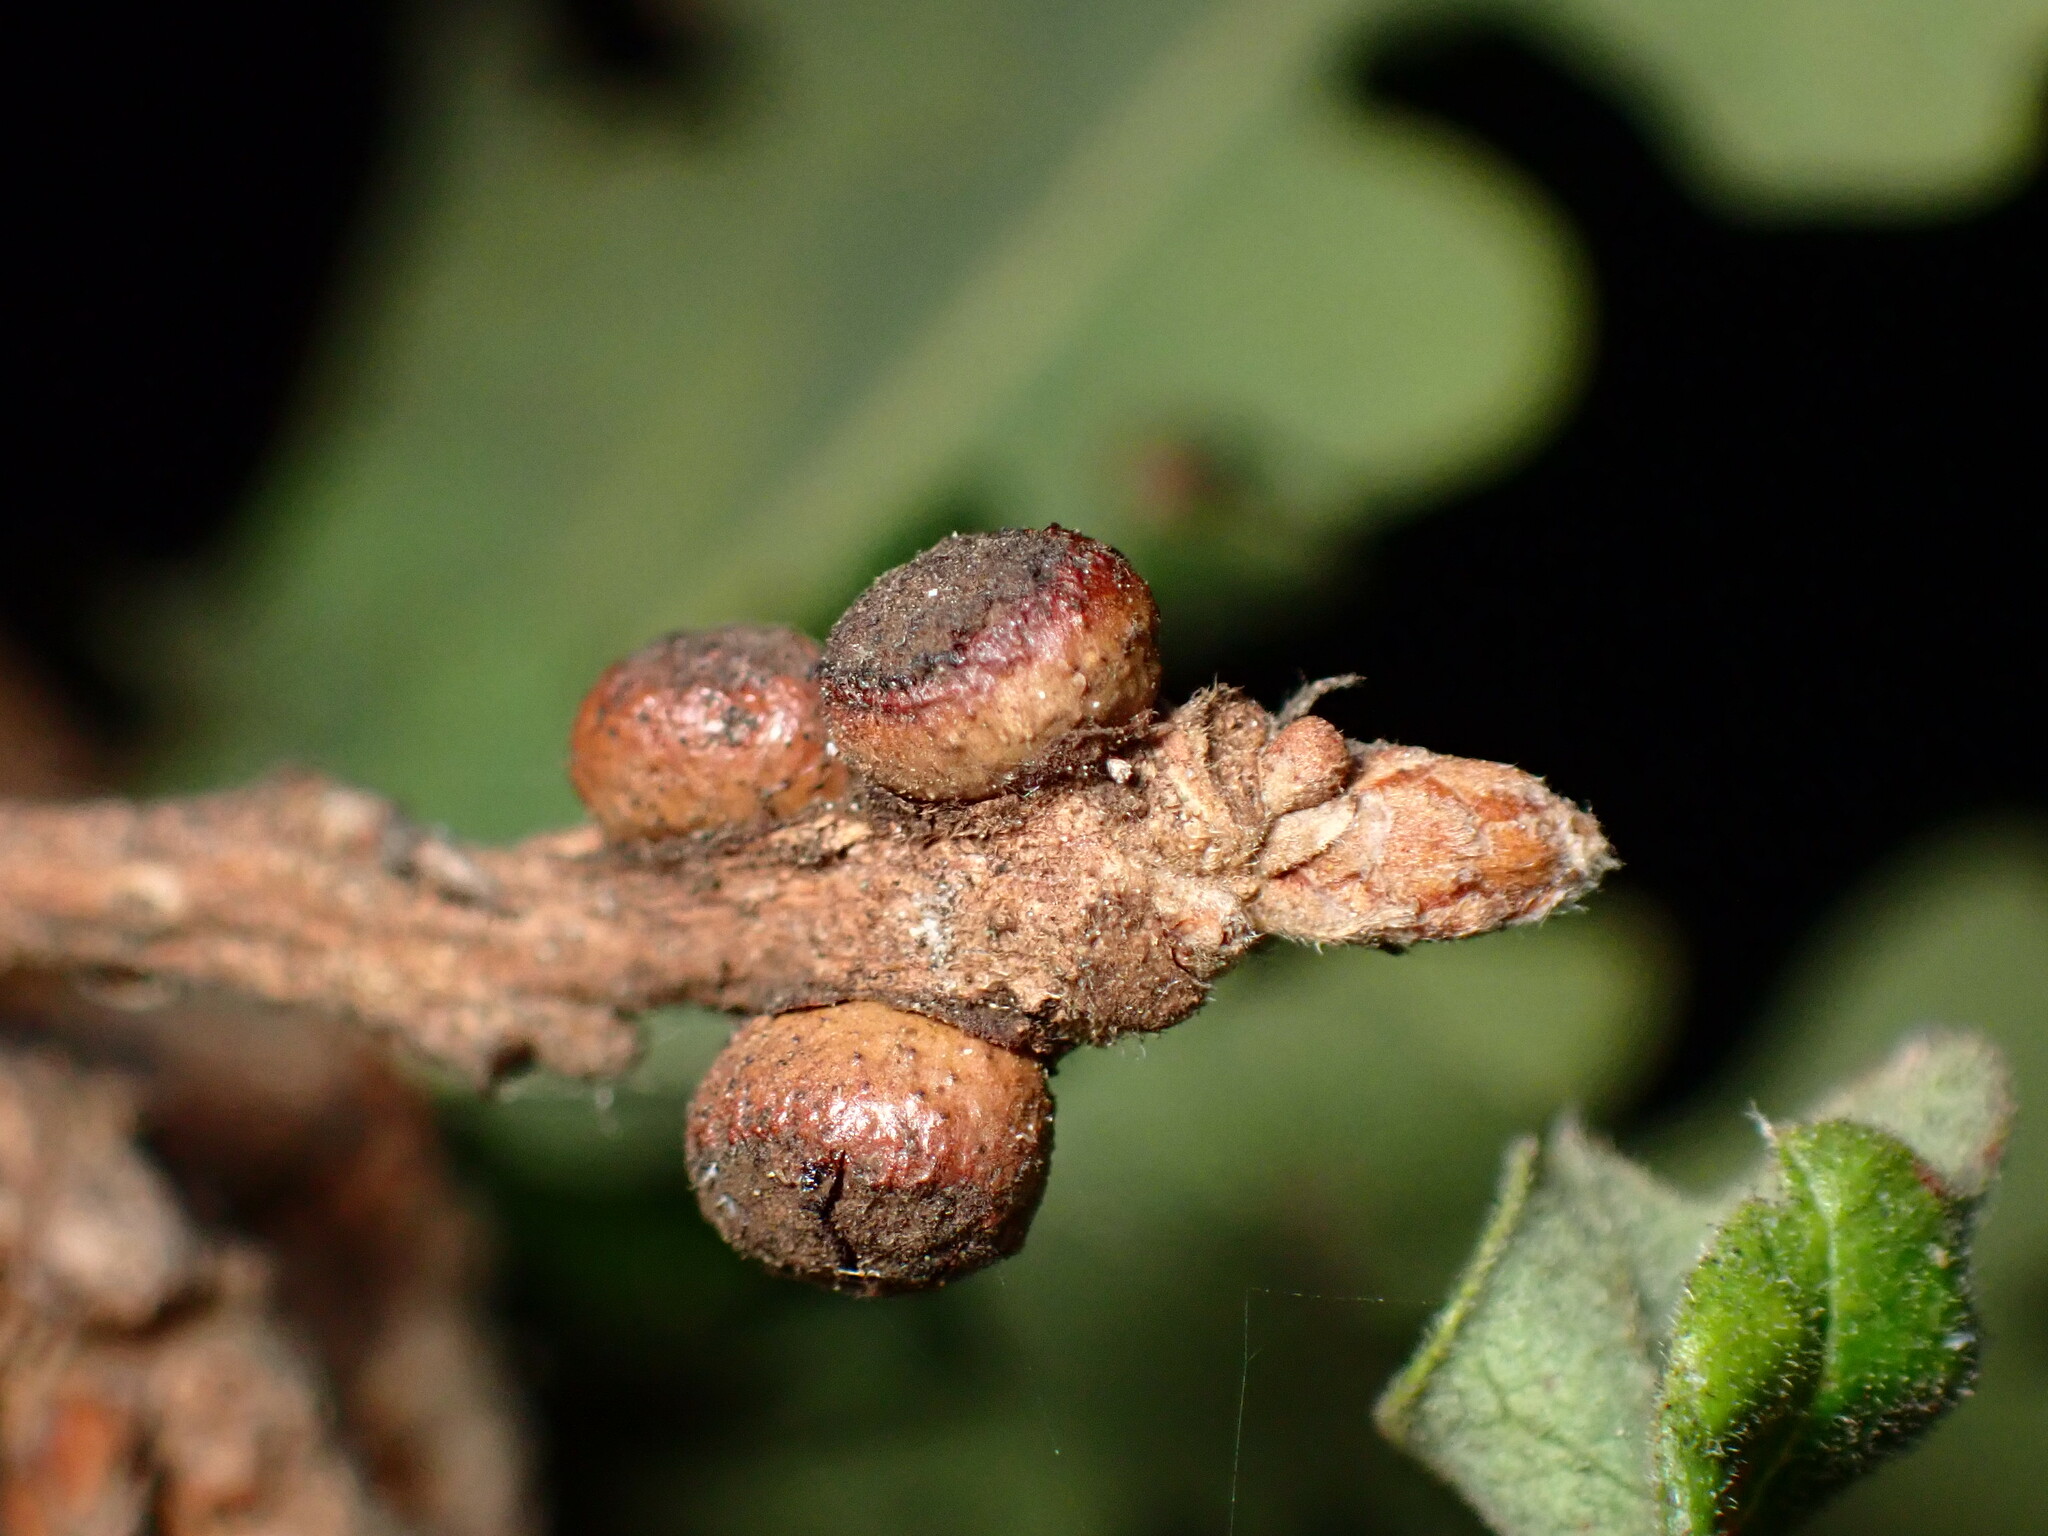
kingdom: Animalia
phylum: Arthropoda
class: Insecta
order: Hymenoptera
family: Cynipidae
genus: Disholcaspis
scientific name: Disholcaspis
